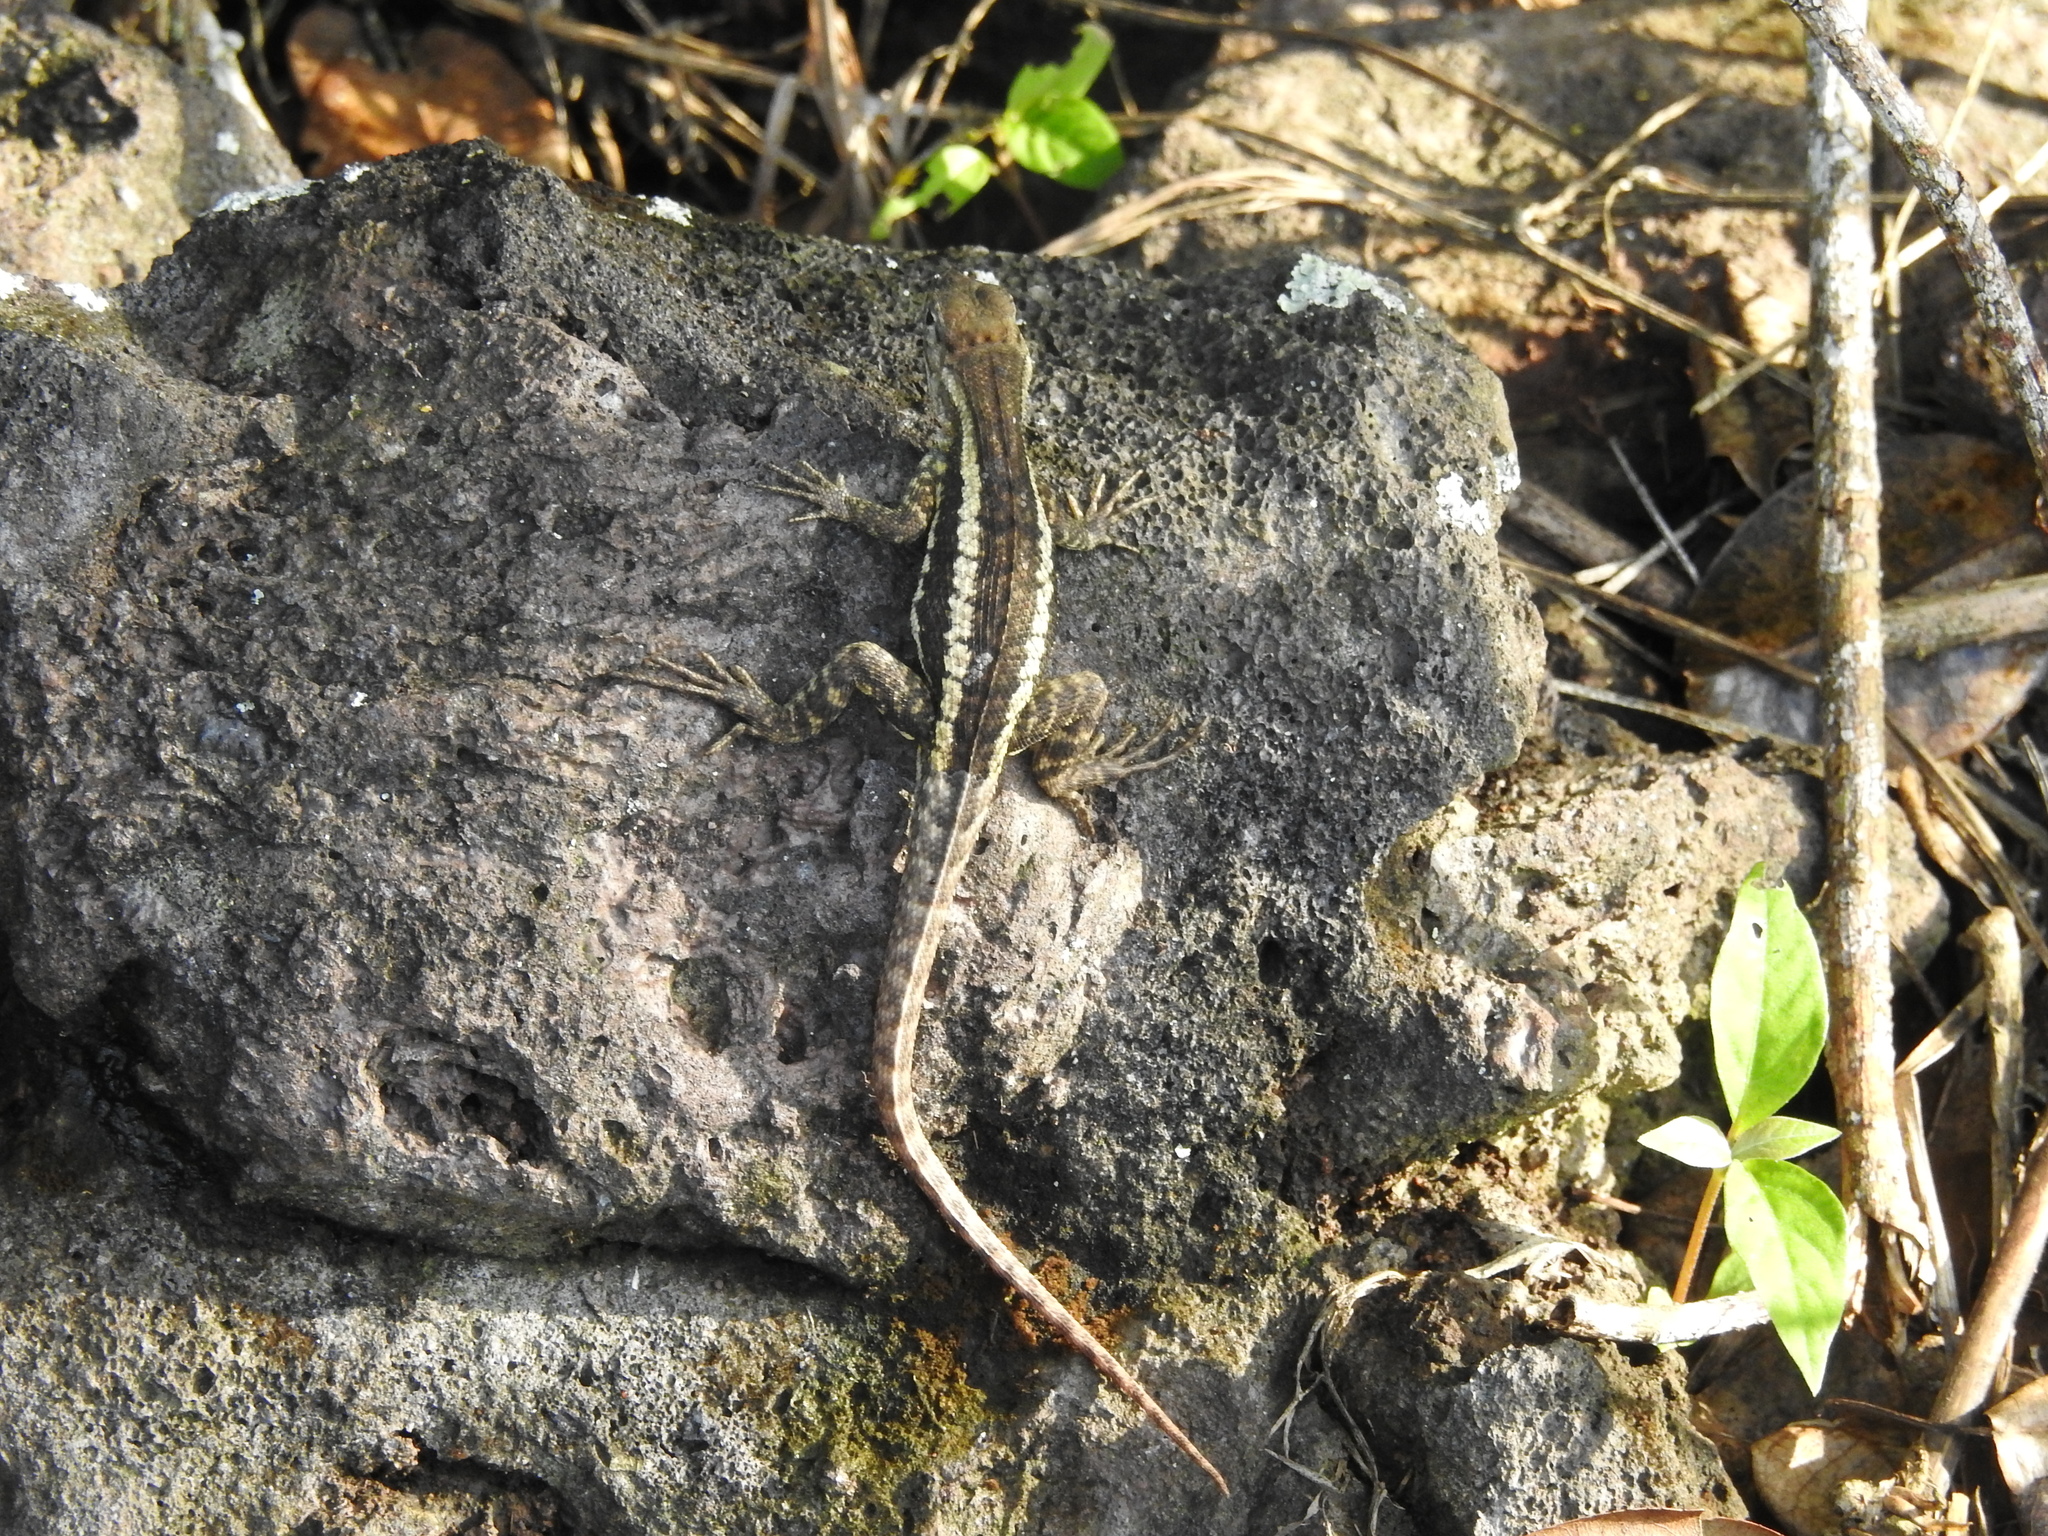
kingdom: Animalia
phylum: Chordata
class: Squamata
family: Tropiduridae
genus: Microlophus
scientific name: Microlophus bivittatus
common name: San cristobal lava lizard
